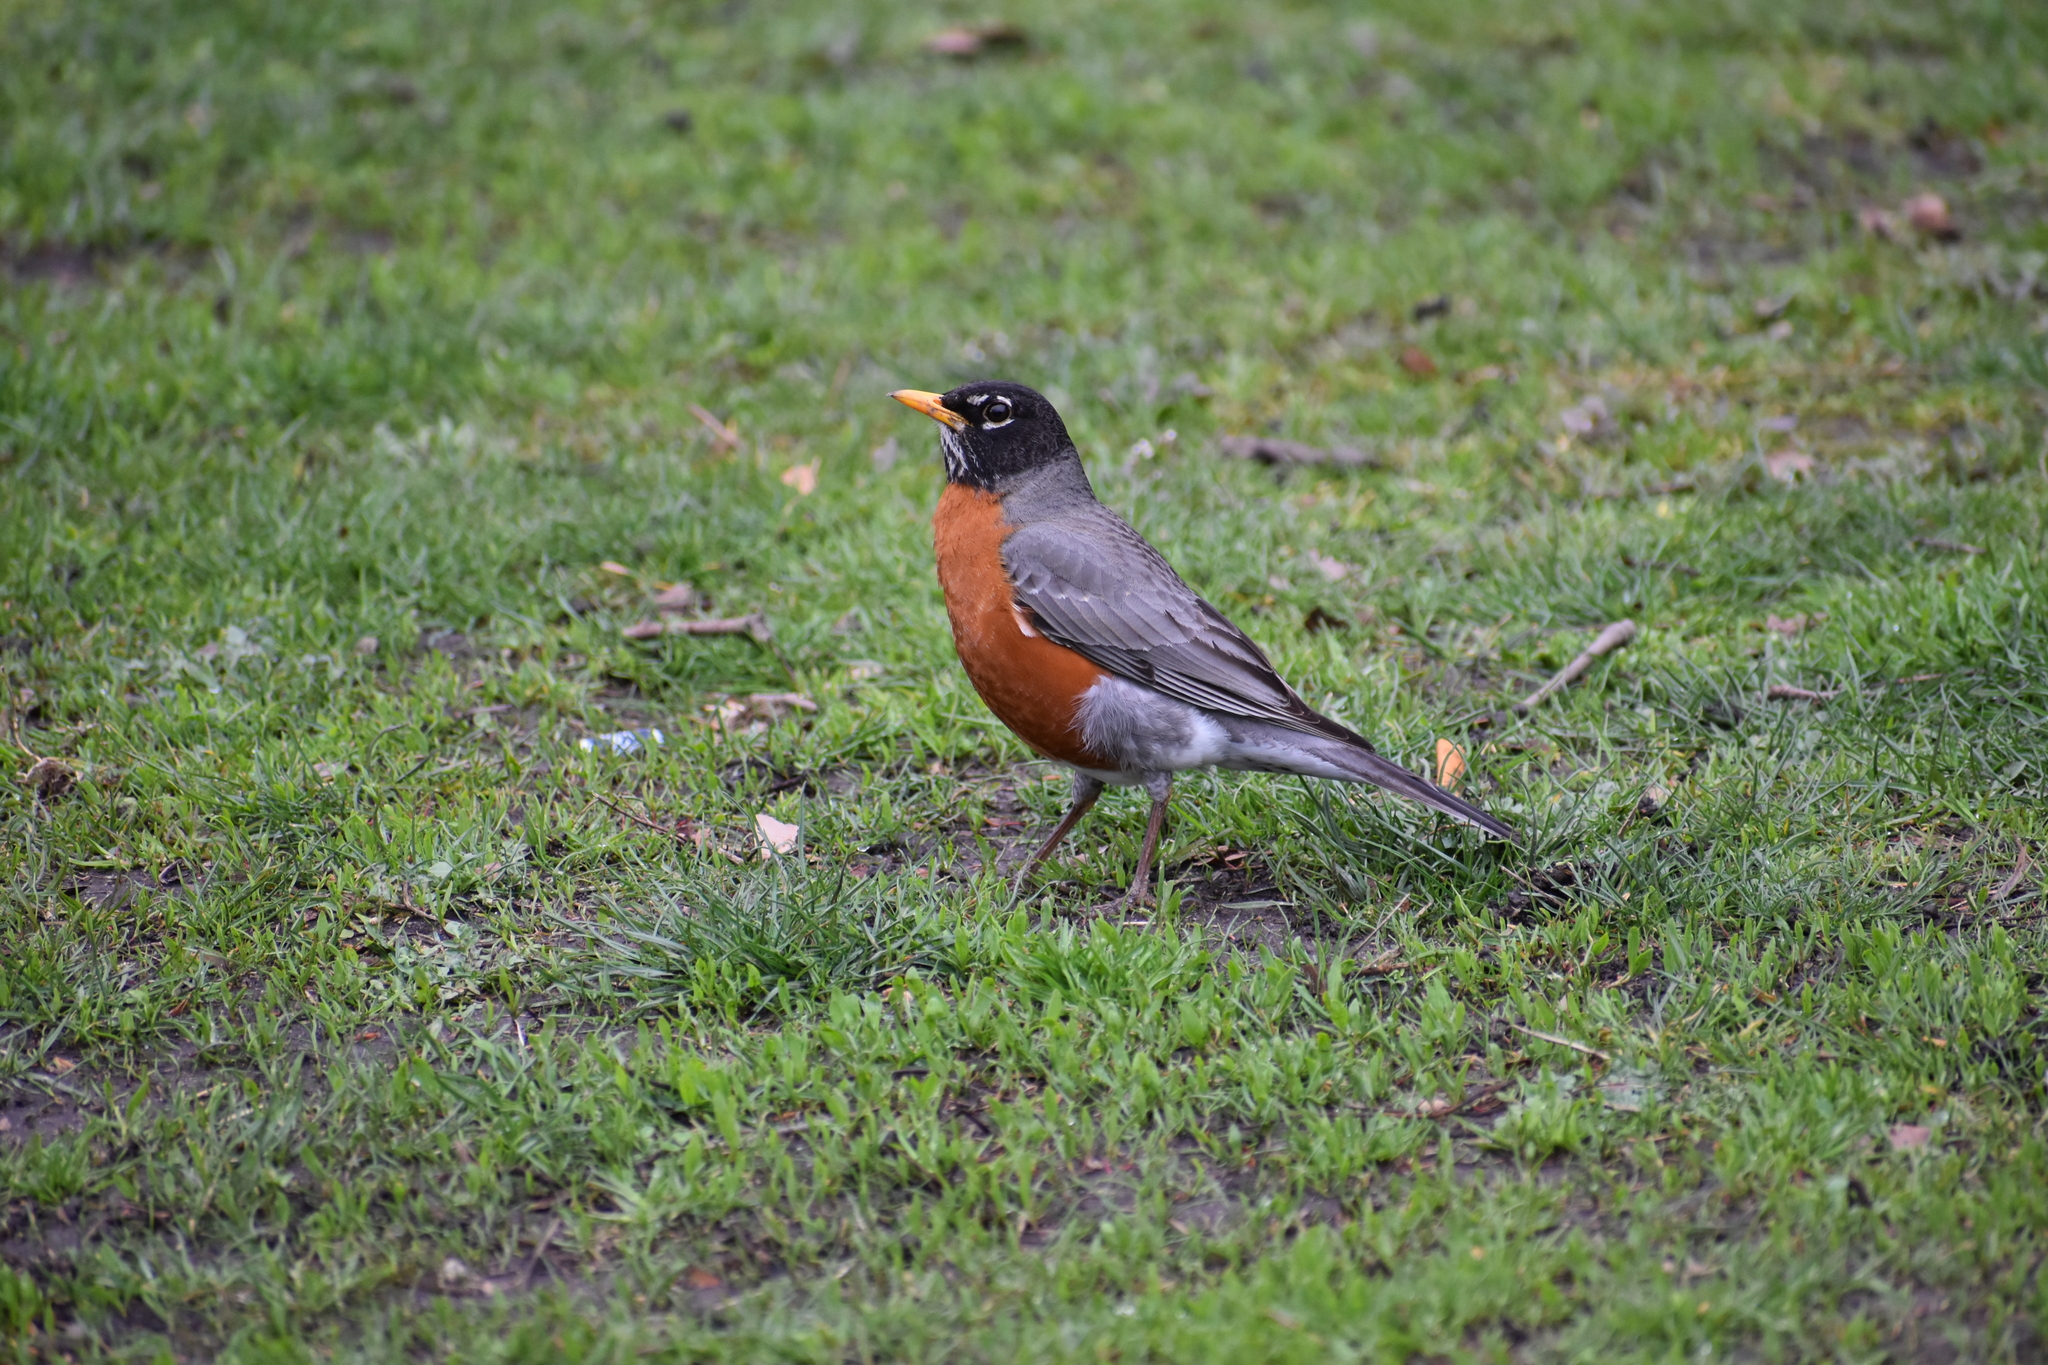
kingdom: Animalia
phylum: Chordata
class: Aves
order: Passeriformes
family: Turdidae
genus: Turdus
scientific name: Turdus migratorius
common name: American robin
